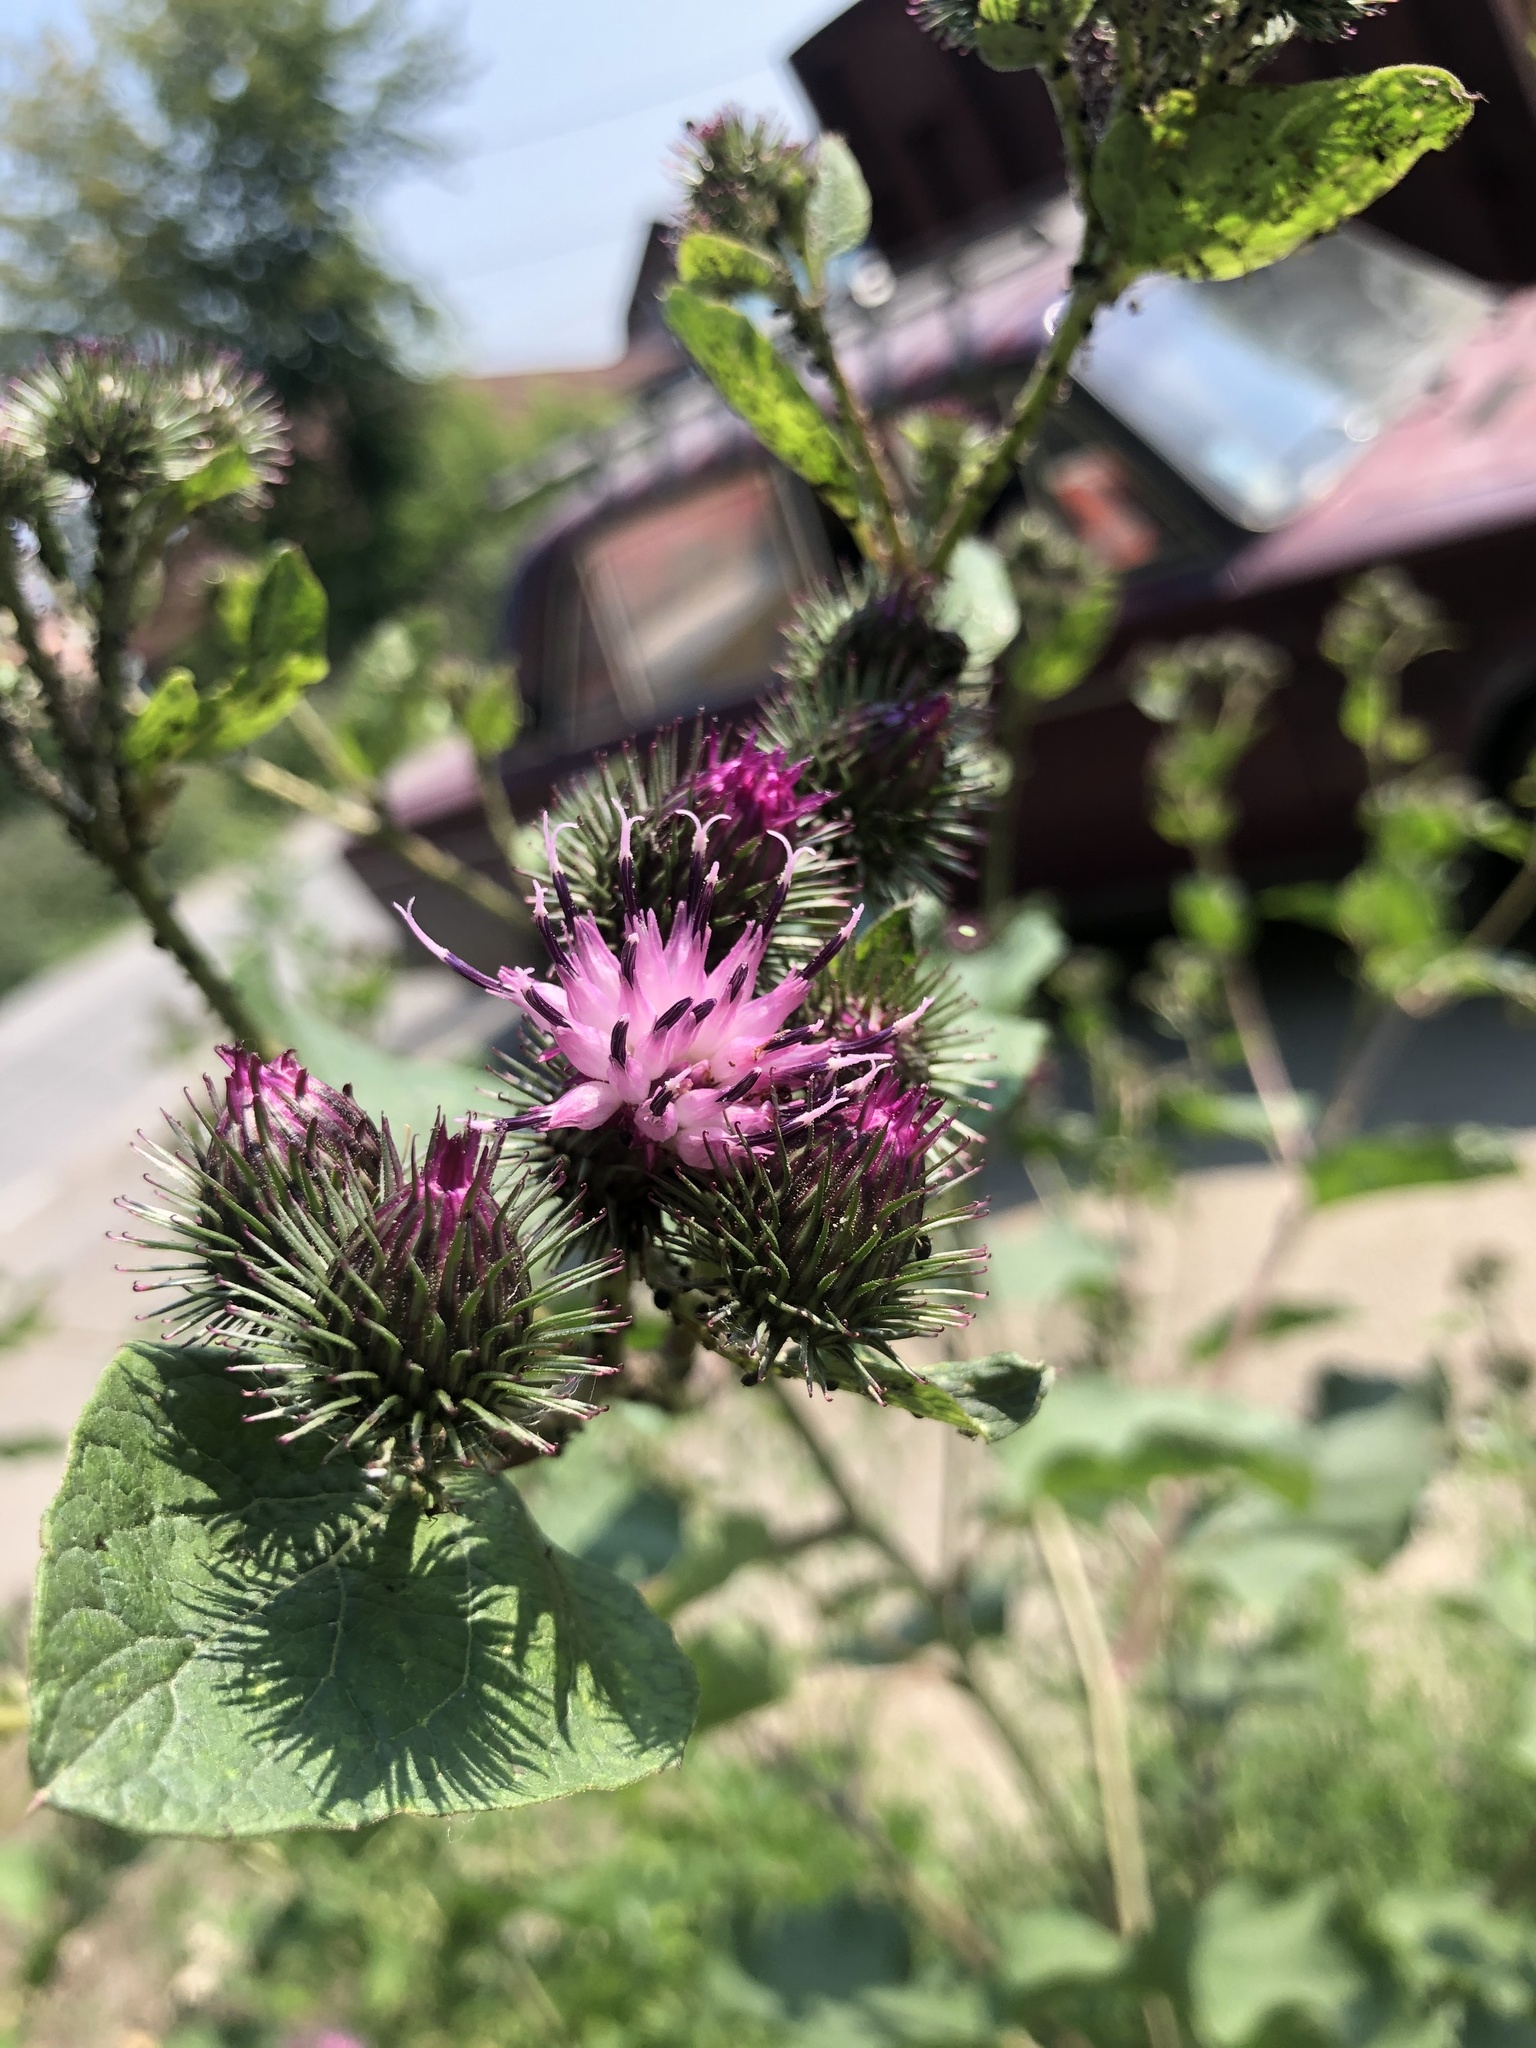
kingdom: Plantae
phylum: Tracheophyta
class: Magnoliopsida
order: Asterales
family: Asteraceae
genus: Arctium
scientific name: Arctium minus
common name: Lesser burdock
